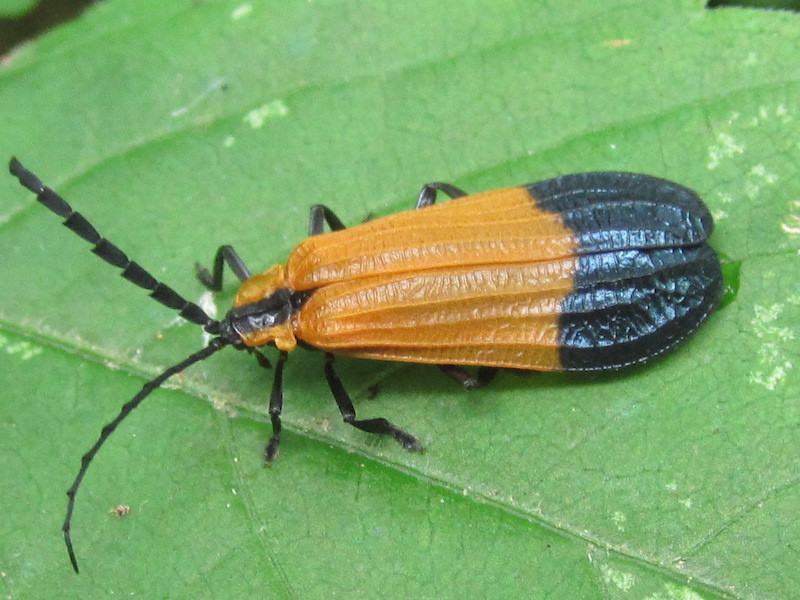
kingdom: Animalia
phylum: Arthropoda
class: Insecta
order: Coleoptera
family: Lycidae
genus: Calopteron
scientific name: Calopteron terminale
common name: End band net-winged beetle
